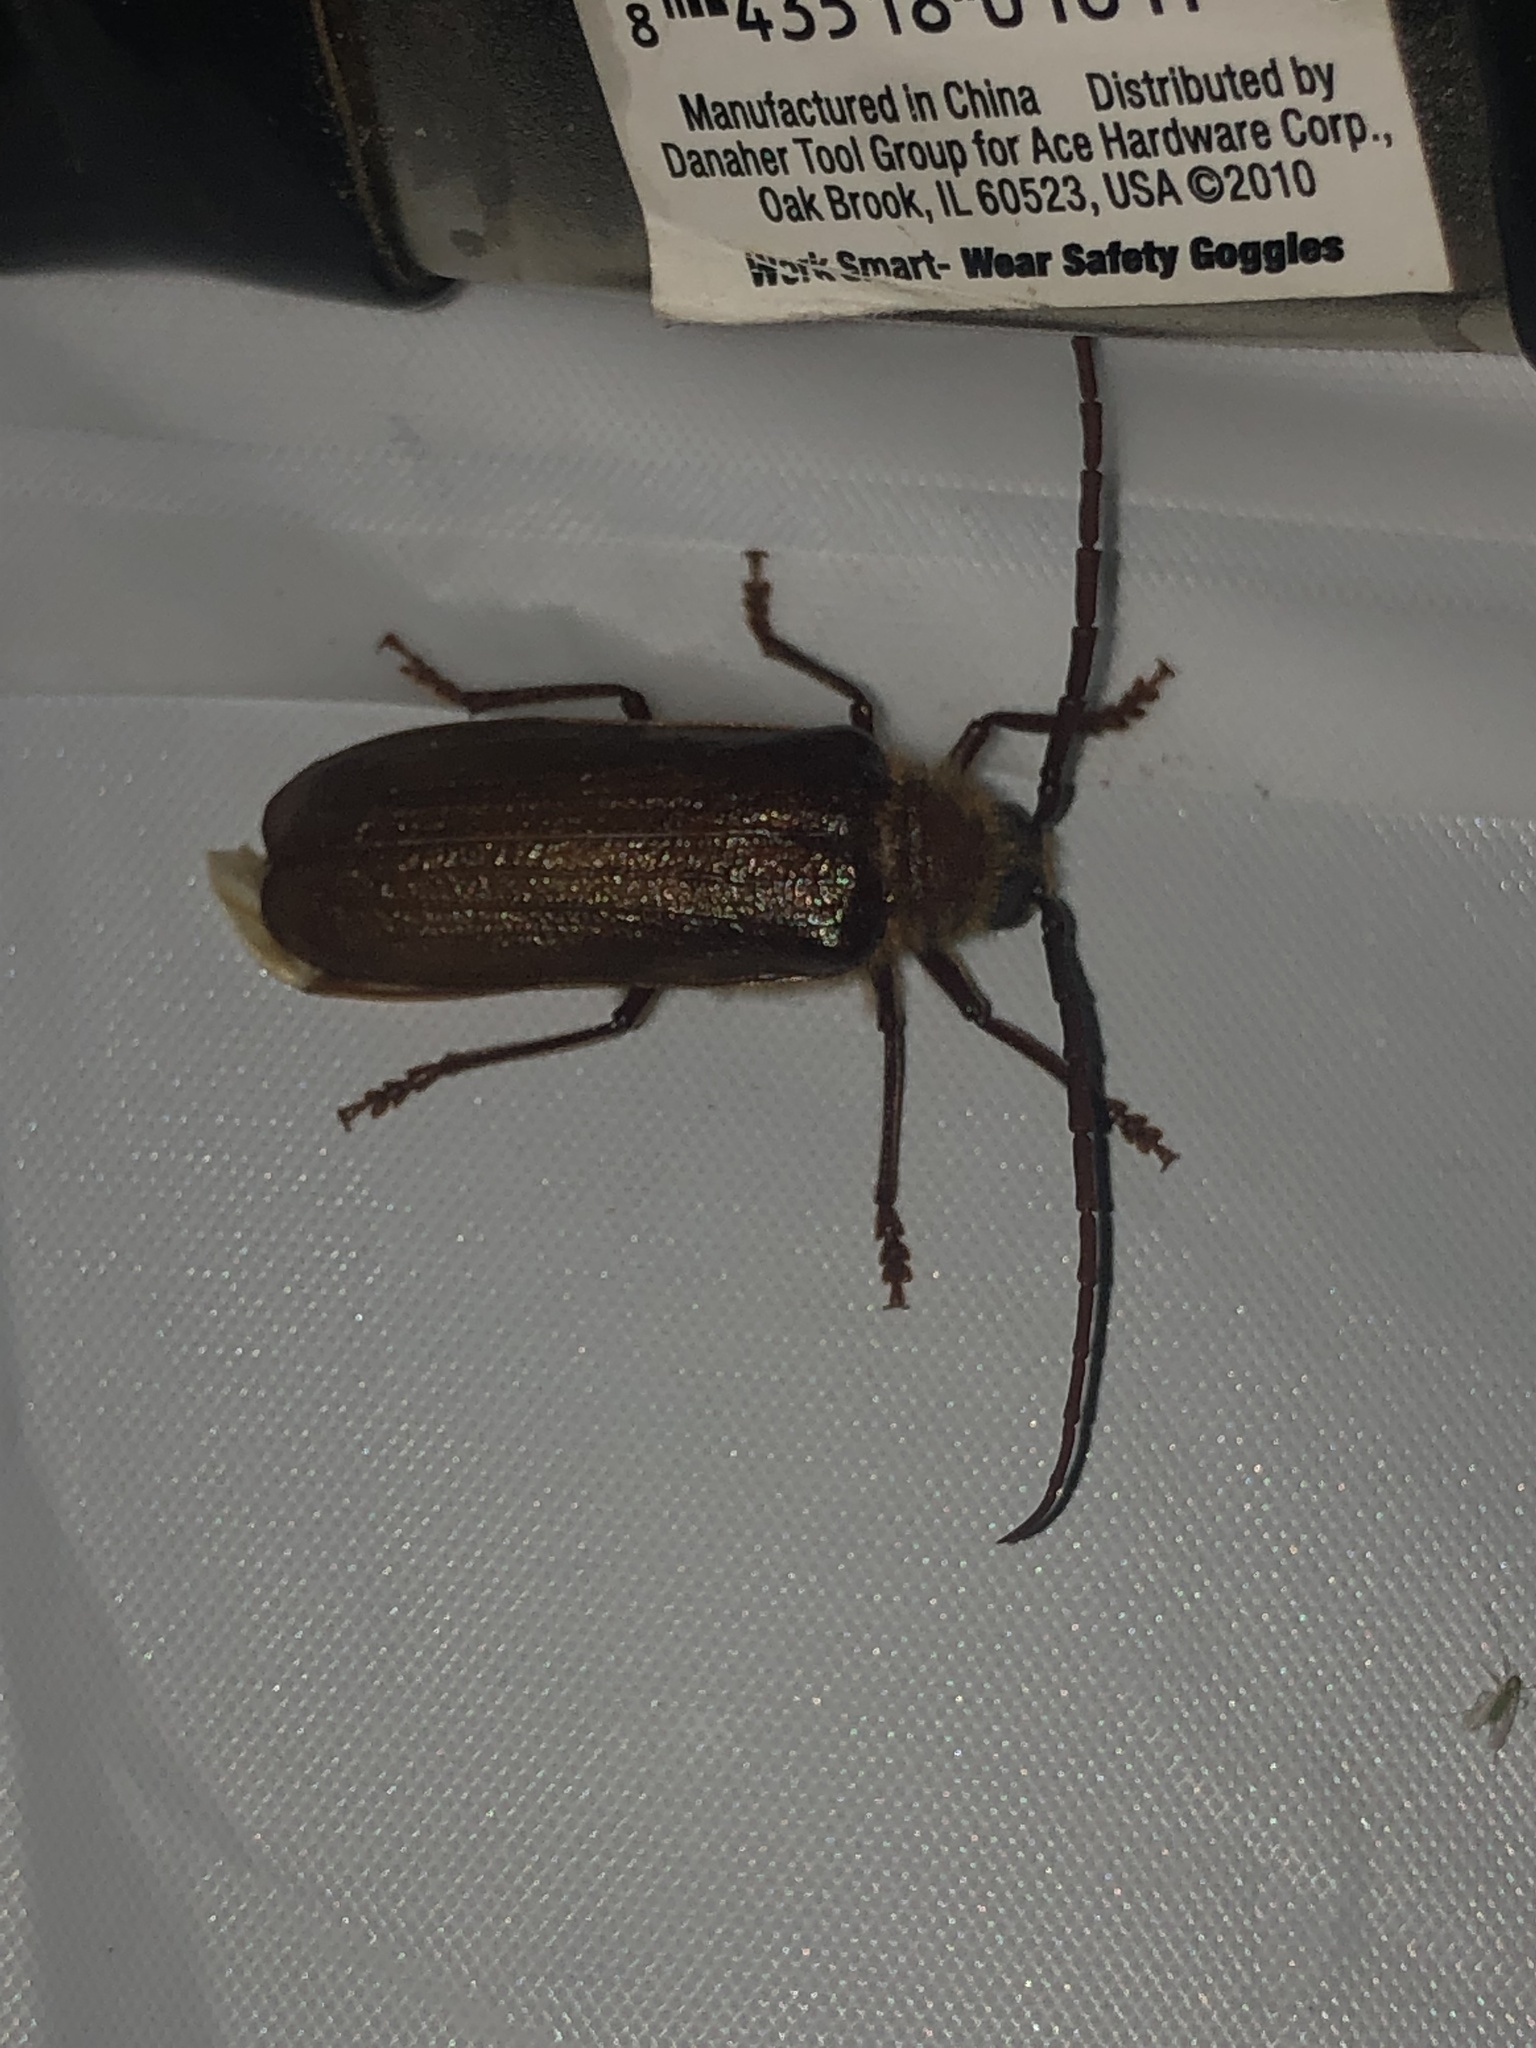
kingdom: Animalia
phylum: Arthropoda
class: Insecta
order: Coleoptera
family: Cerambycidae
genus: Tragosoma
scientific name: Tragosoma harrisii
